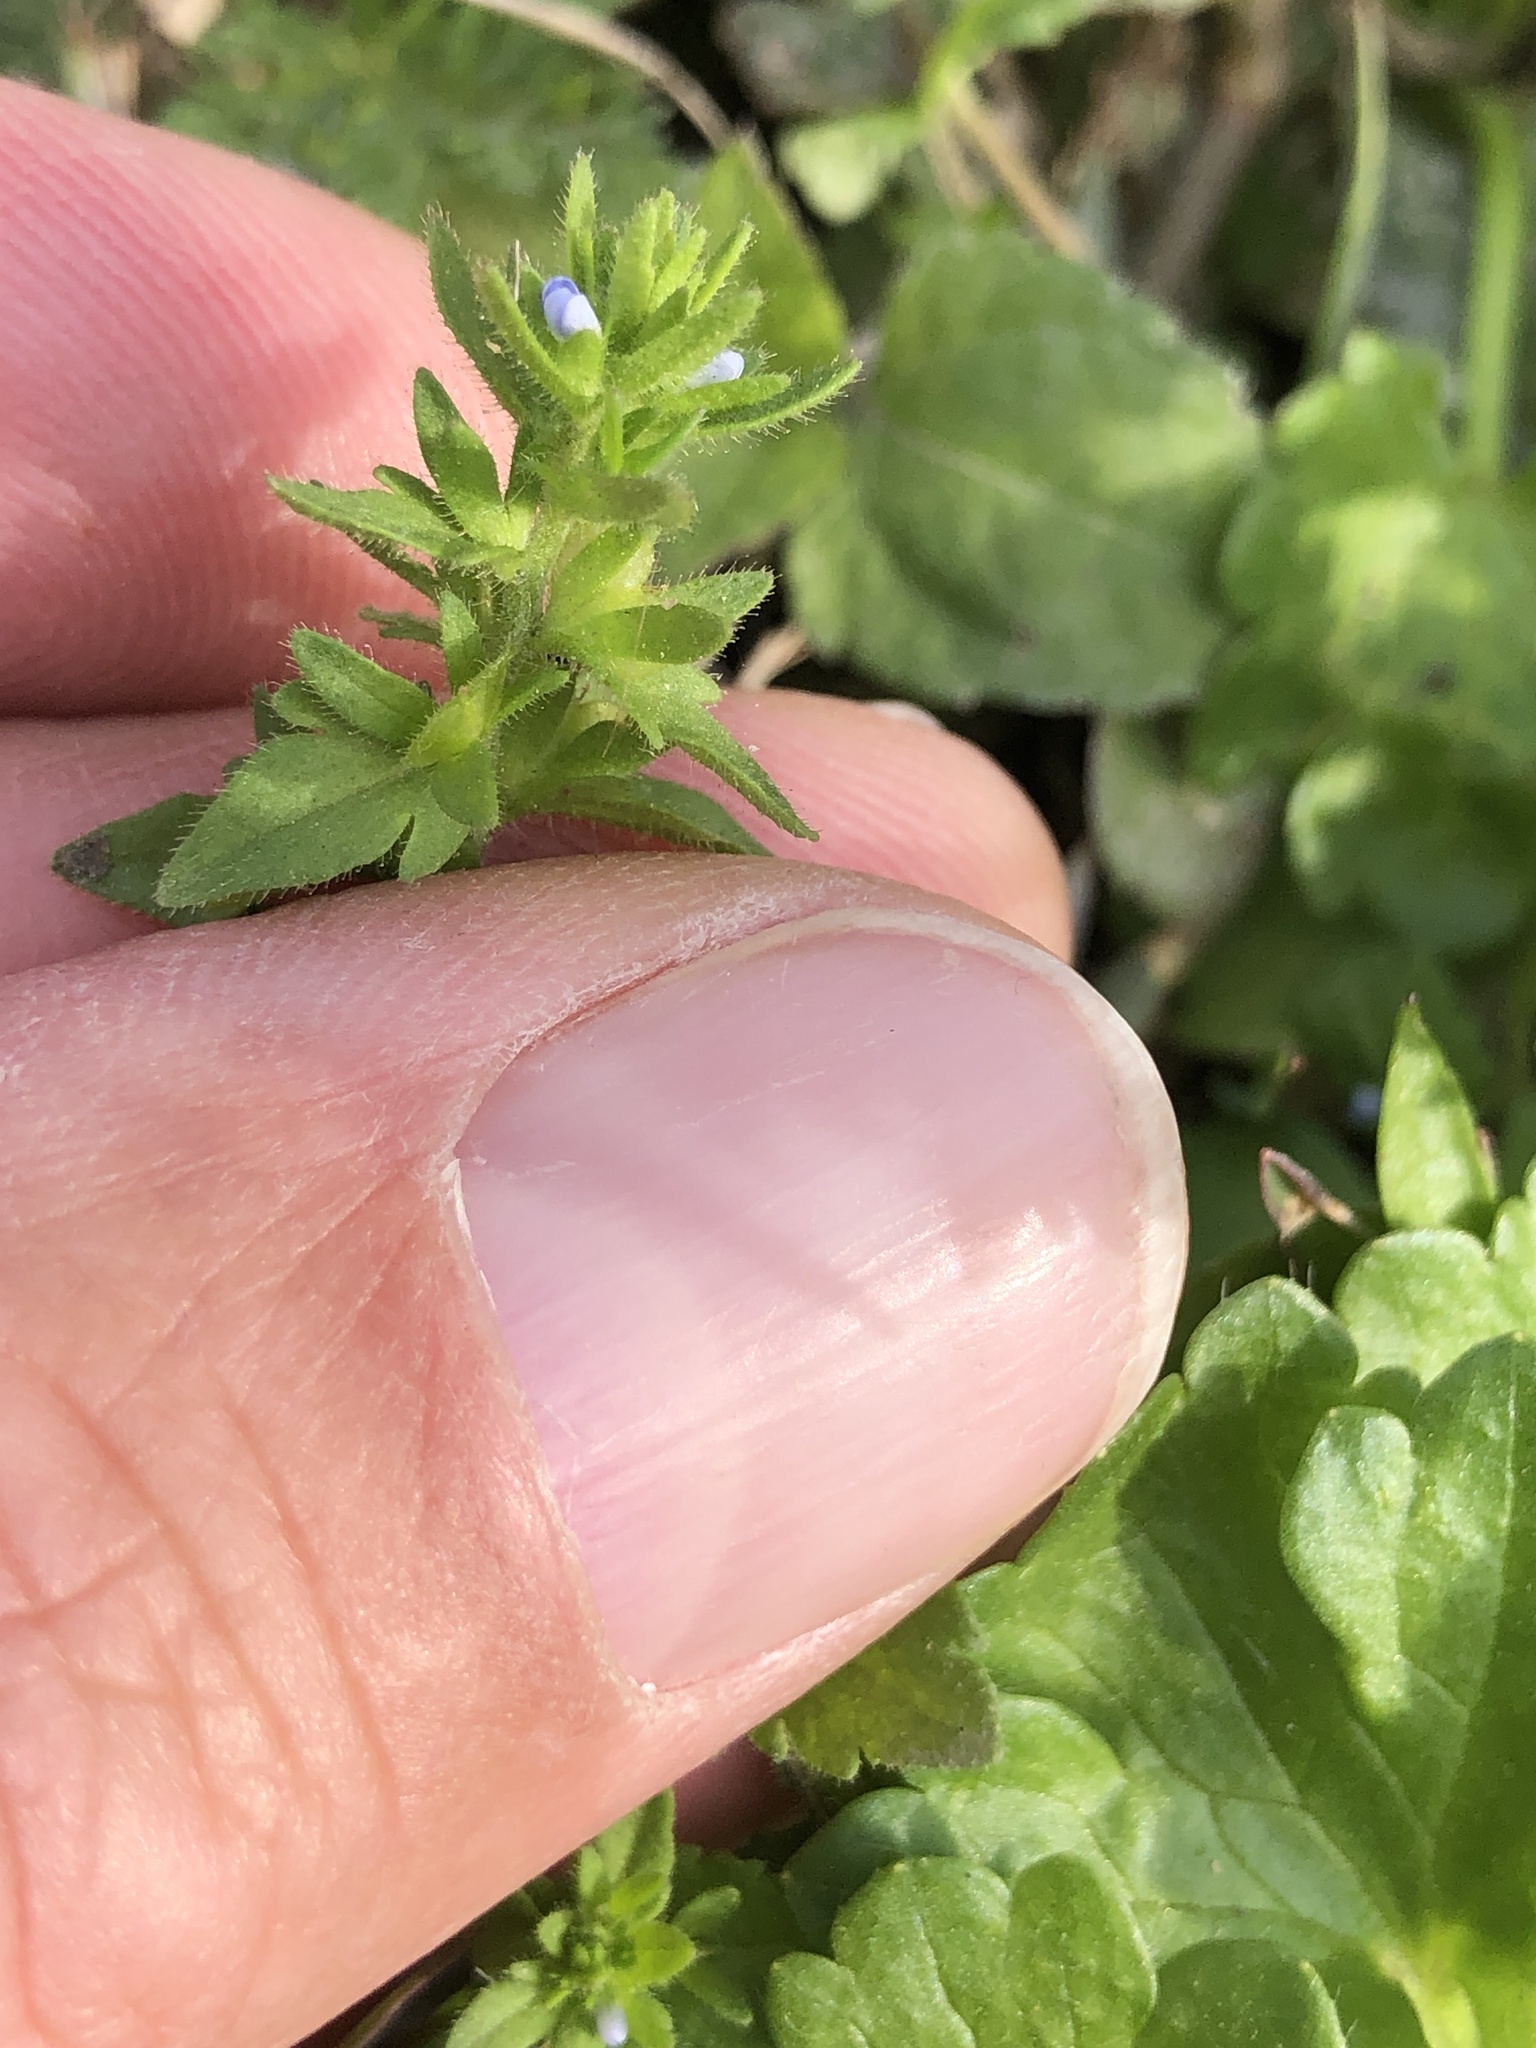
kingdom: Plantae
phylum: Tracheophyta
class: Magnoliopsida
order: Lamiales
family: Plantaginaceae
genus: Veronica
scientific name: Veronica arvensis
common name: Corn speedwell
